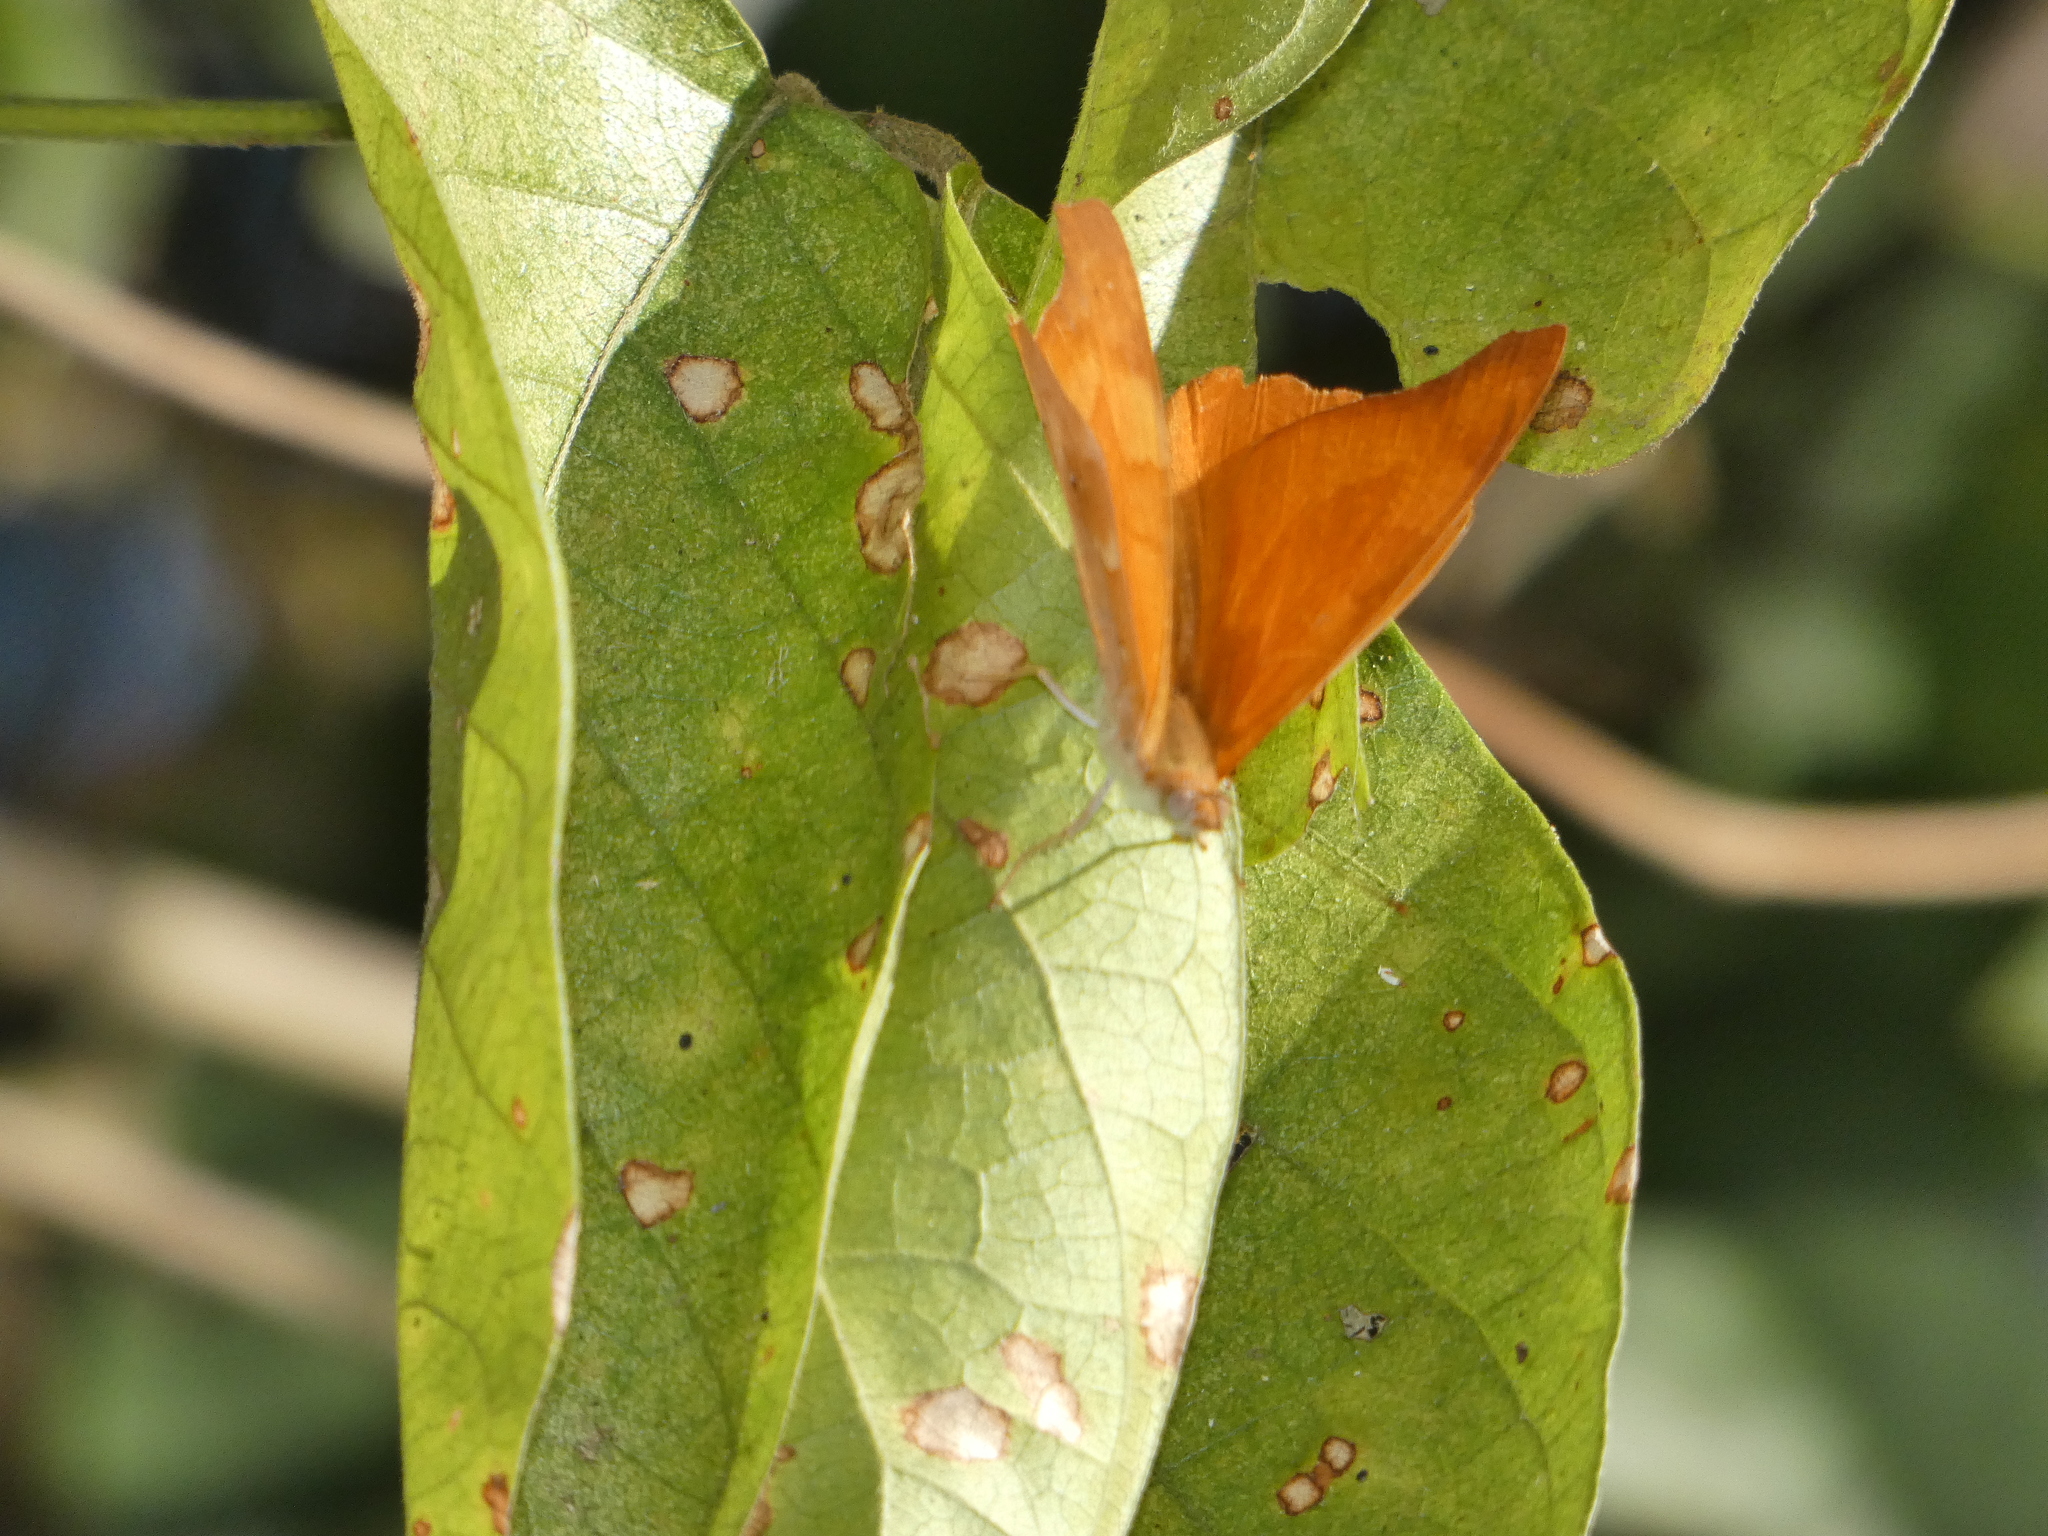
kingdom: Animalia
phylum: Arthropoda
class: Insecta
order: Lepidoptera
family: Nymphalidae
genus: Temenis
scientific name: Temenis laothoe
